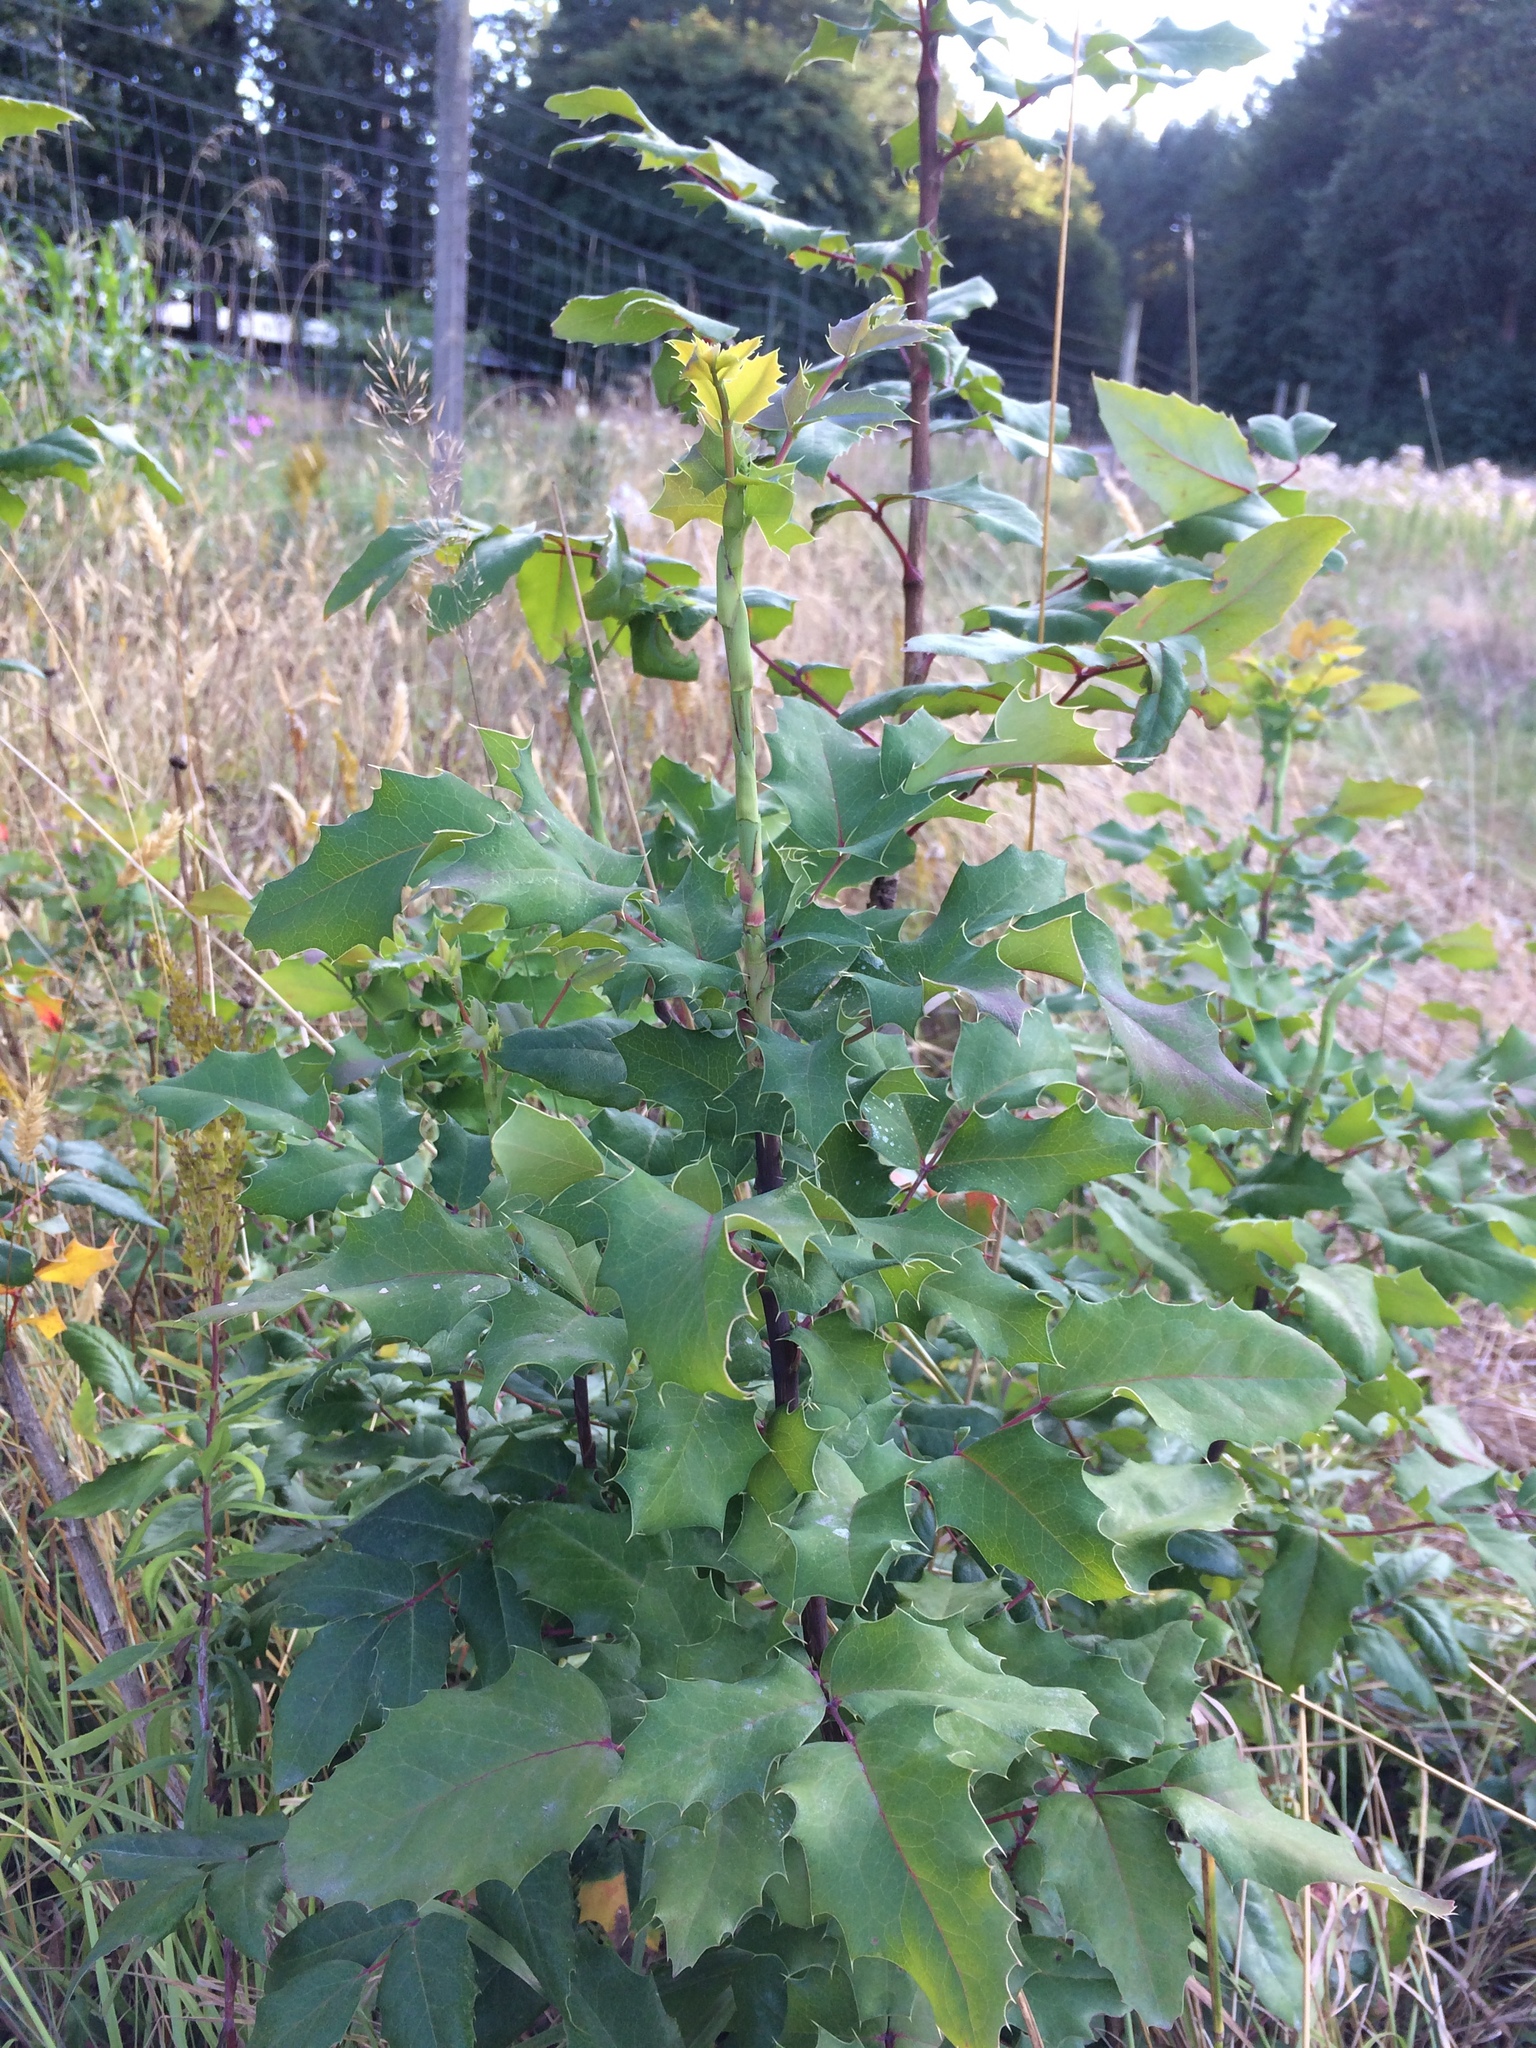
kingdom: Plantae
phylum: Tracheophyta
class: Magnoliopsida
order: Ranunculales
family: Berberidaceae
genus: Mahonia
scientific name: Mahonia aquifolium
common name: Oregon-grape
